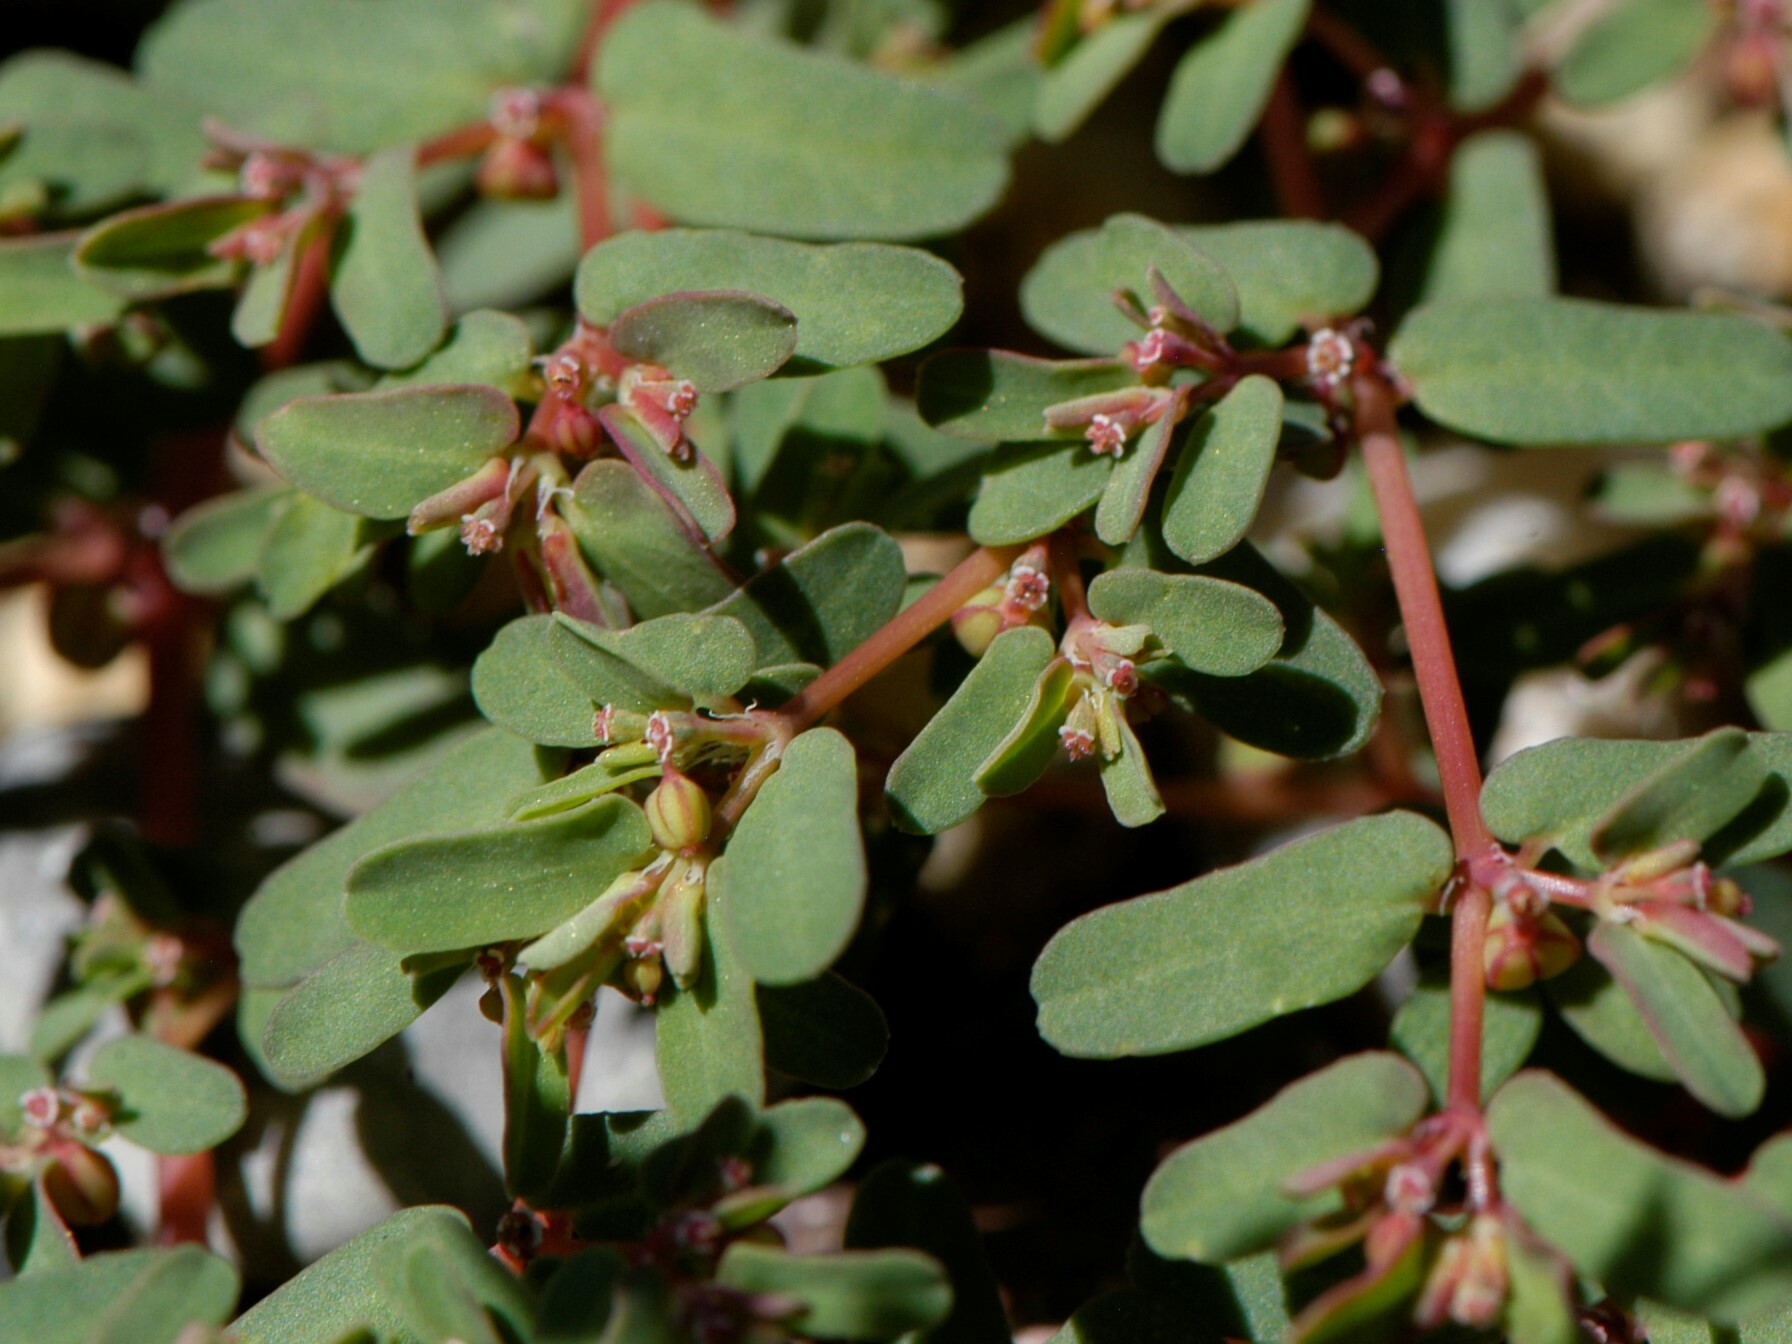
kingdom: Plantae
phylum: Tracheophyta
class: Magnoliopsida
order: Malpighiales
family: Euphorbiaceae
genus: Euphorbia
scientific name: Euphorbia glyptosperma
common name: Corrugate-seeded spurge
